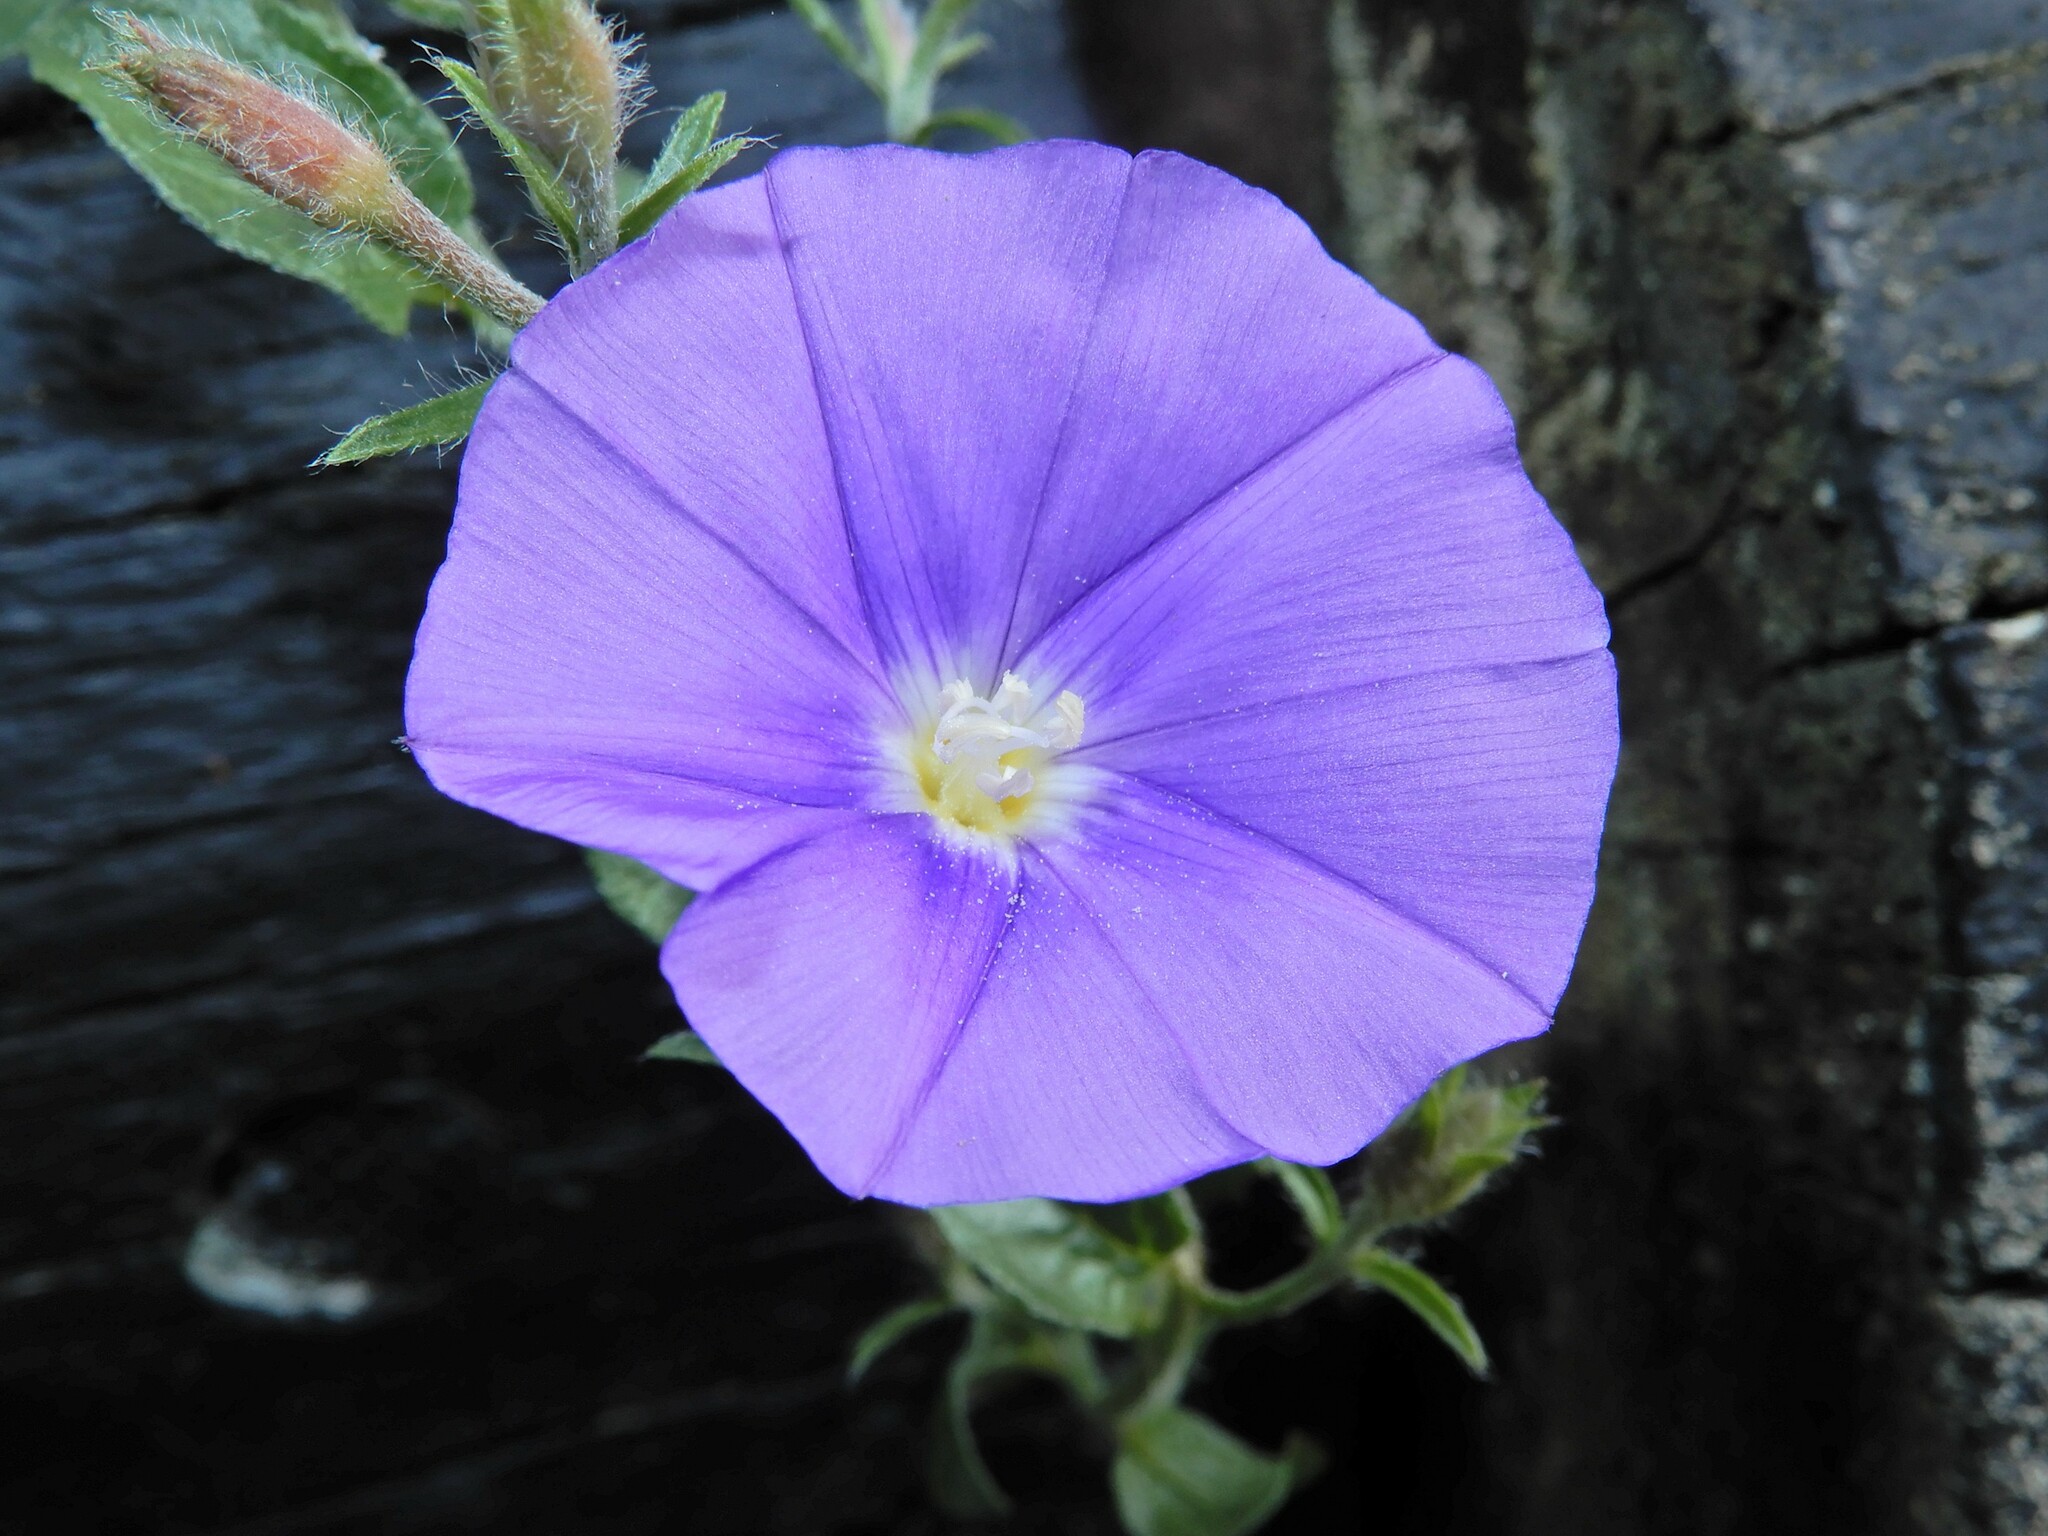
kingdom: Plantae
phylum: Tracheophyta
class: Magnoliopsida
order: Solanales
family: Convolvulaceae
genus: Convolvulus
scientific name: Convolvulus sabatius
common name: Ground blue-convolvulus
